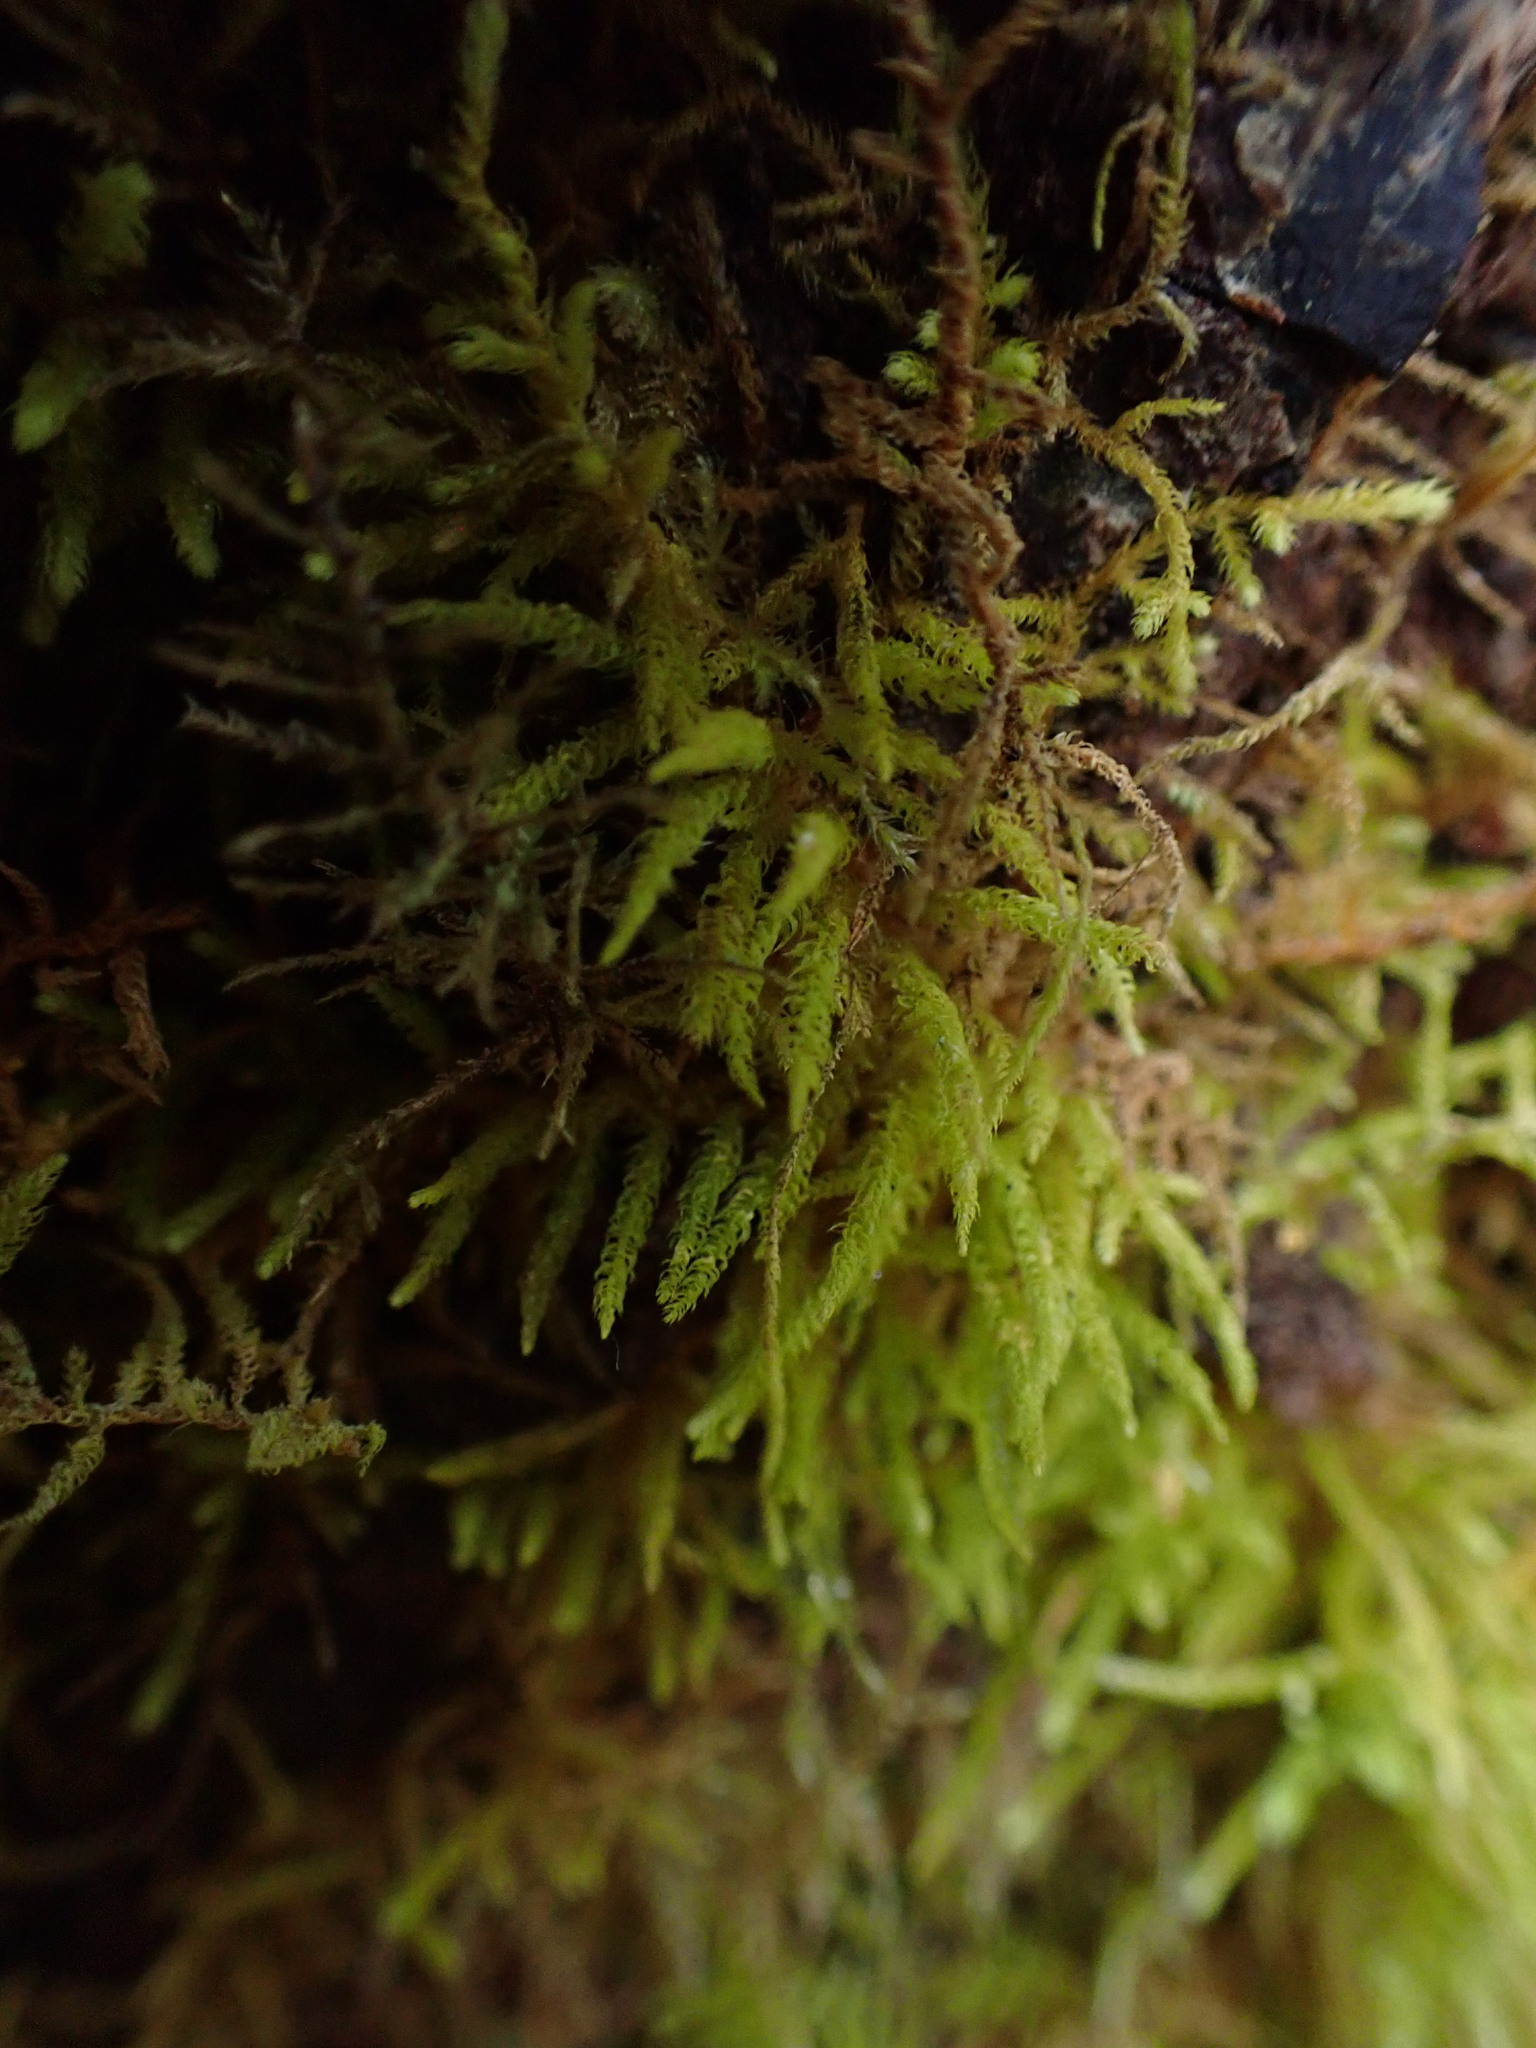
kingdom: Plantae
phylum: Bryophyta
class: Bryopsida
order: Hypnales
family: Brachytheciaceae
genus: Claopodium
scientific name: Claopodium crispifolium
